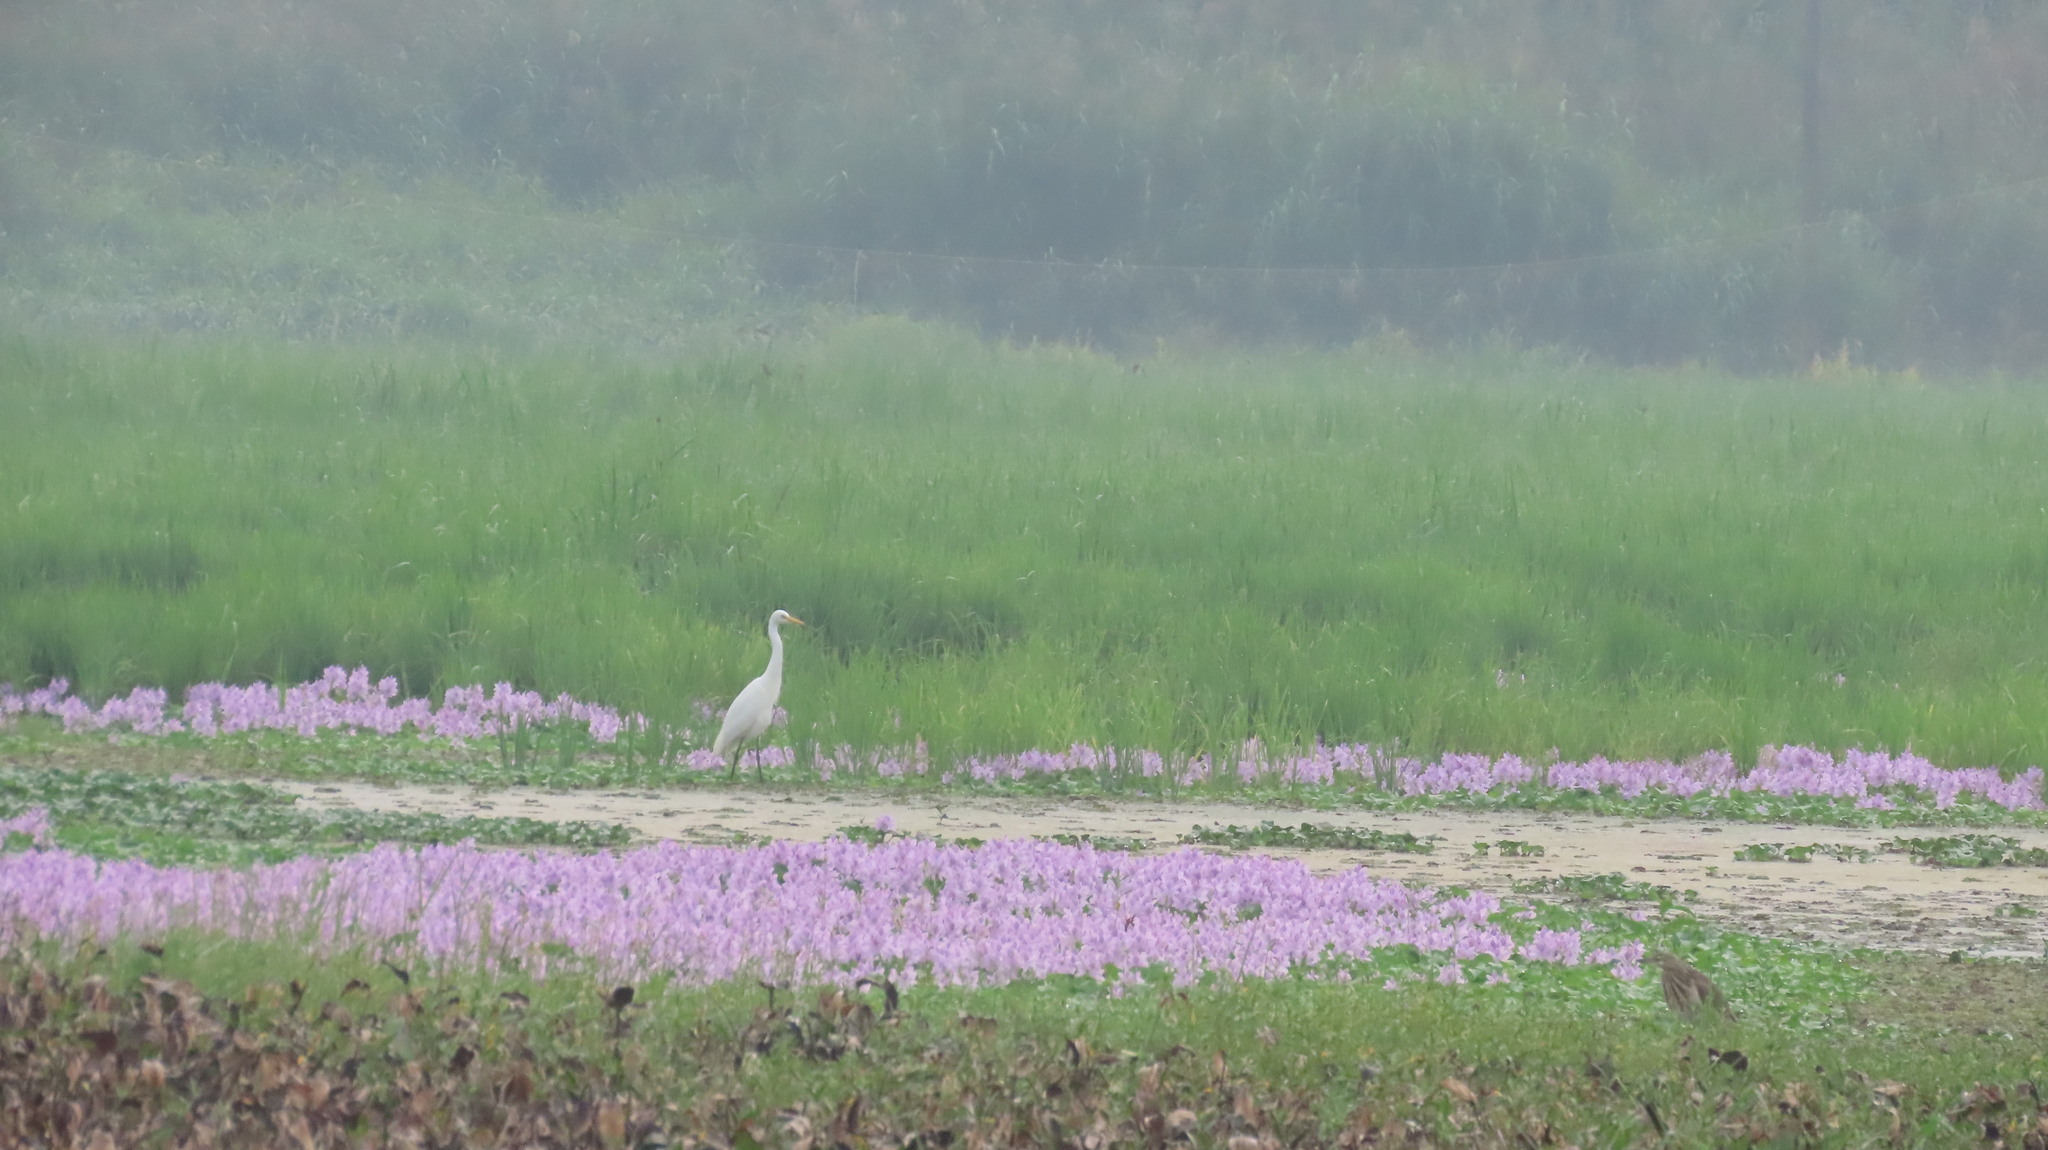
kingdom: Animalia
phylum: Chordata
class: Aves
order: Pelecaniformes
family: Ardeidae
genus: Egretta
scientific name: Egretta intermedia
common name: Intermediate egret
